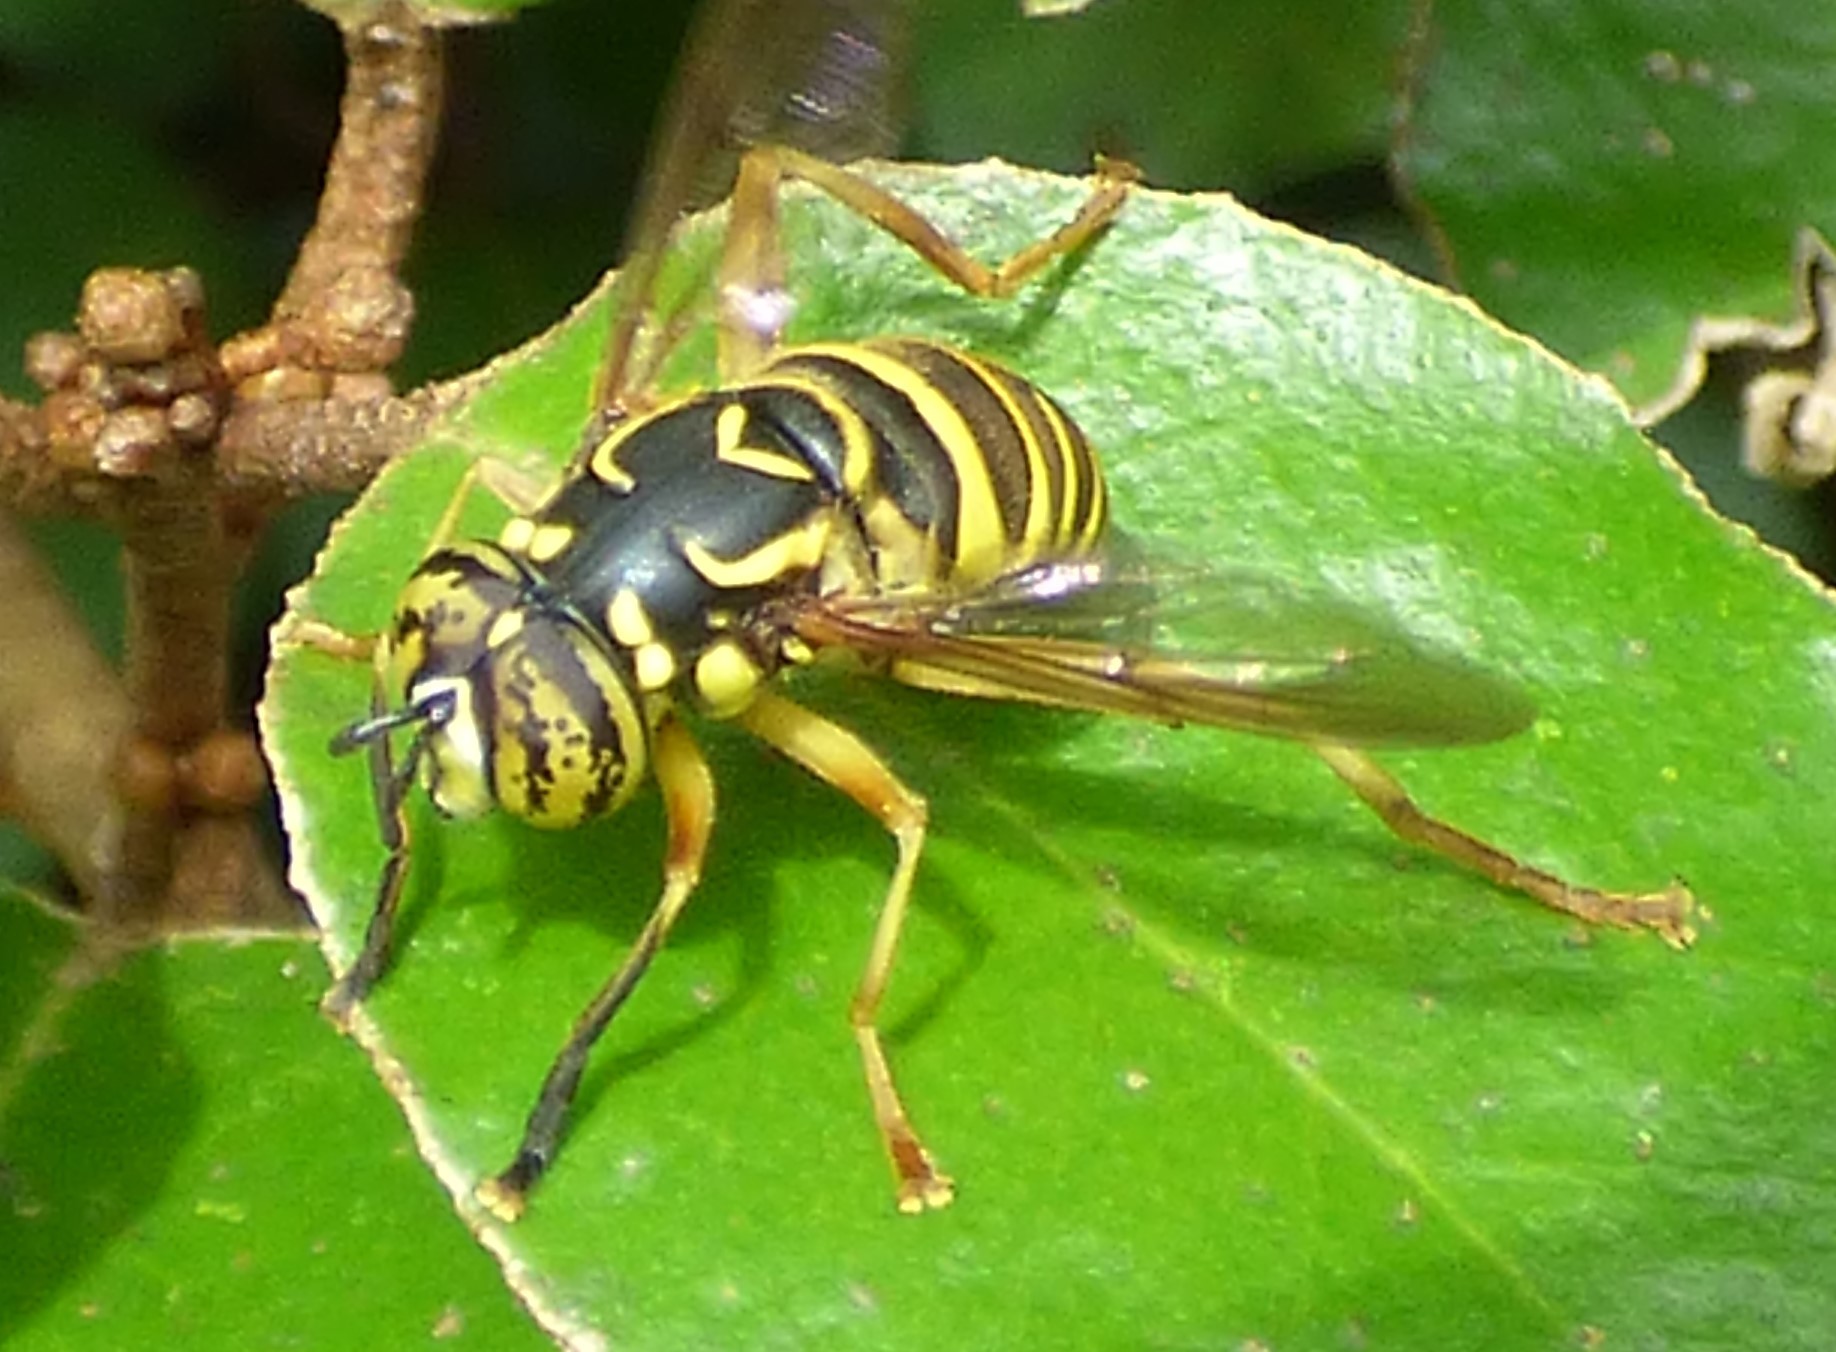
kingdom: Animalia
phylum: Arthropoda
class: Insecta
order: Diptera
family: Syrphidae
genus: Spilomyia
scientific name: Spilomyia longicornis
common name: Eastern hornet fly
